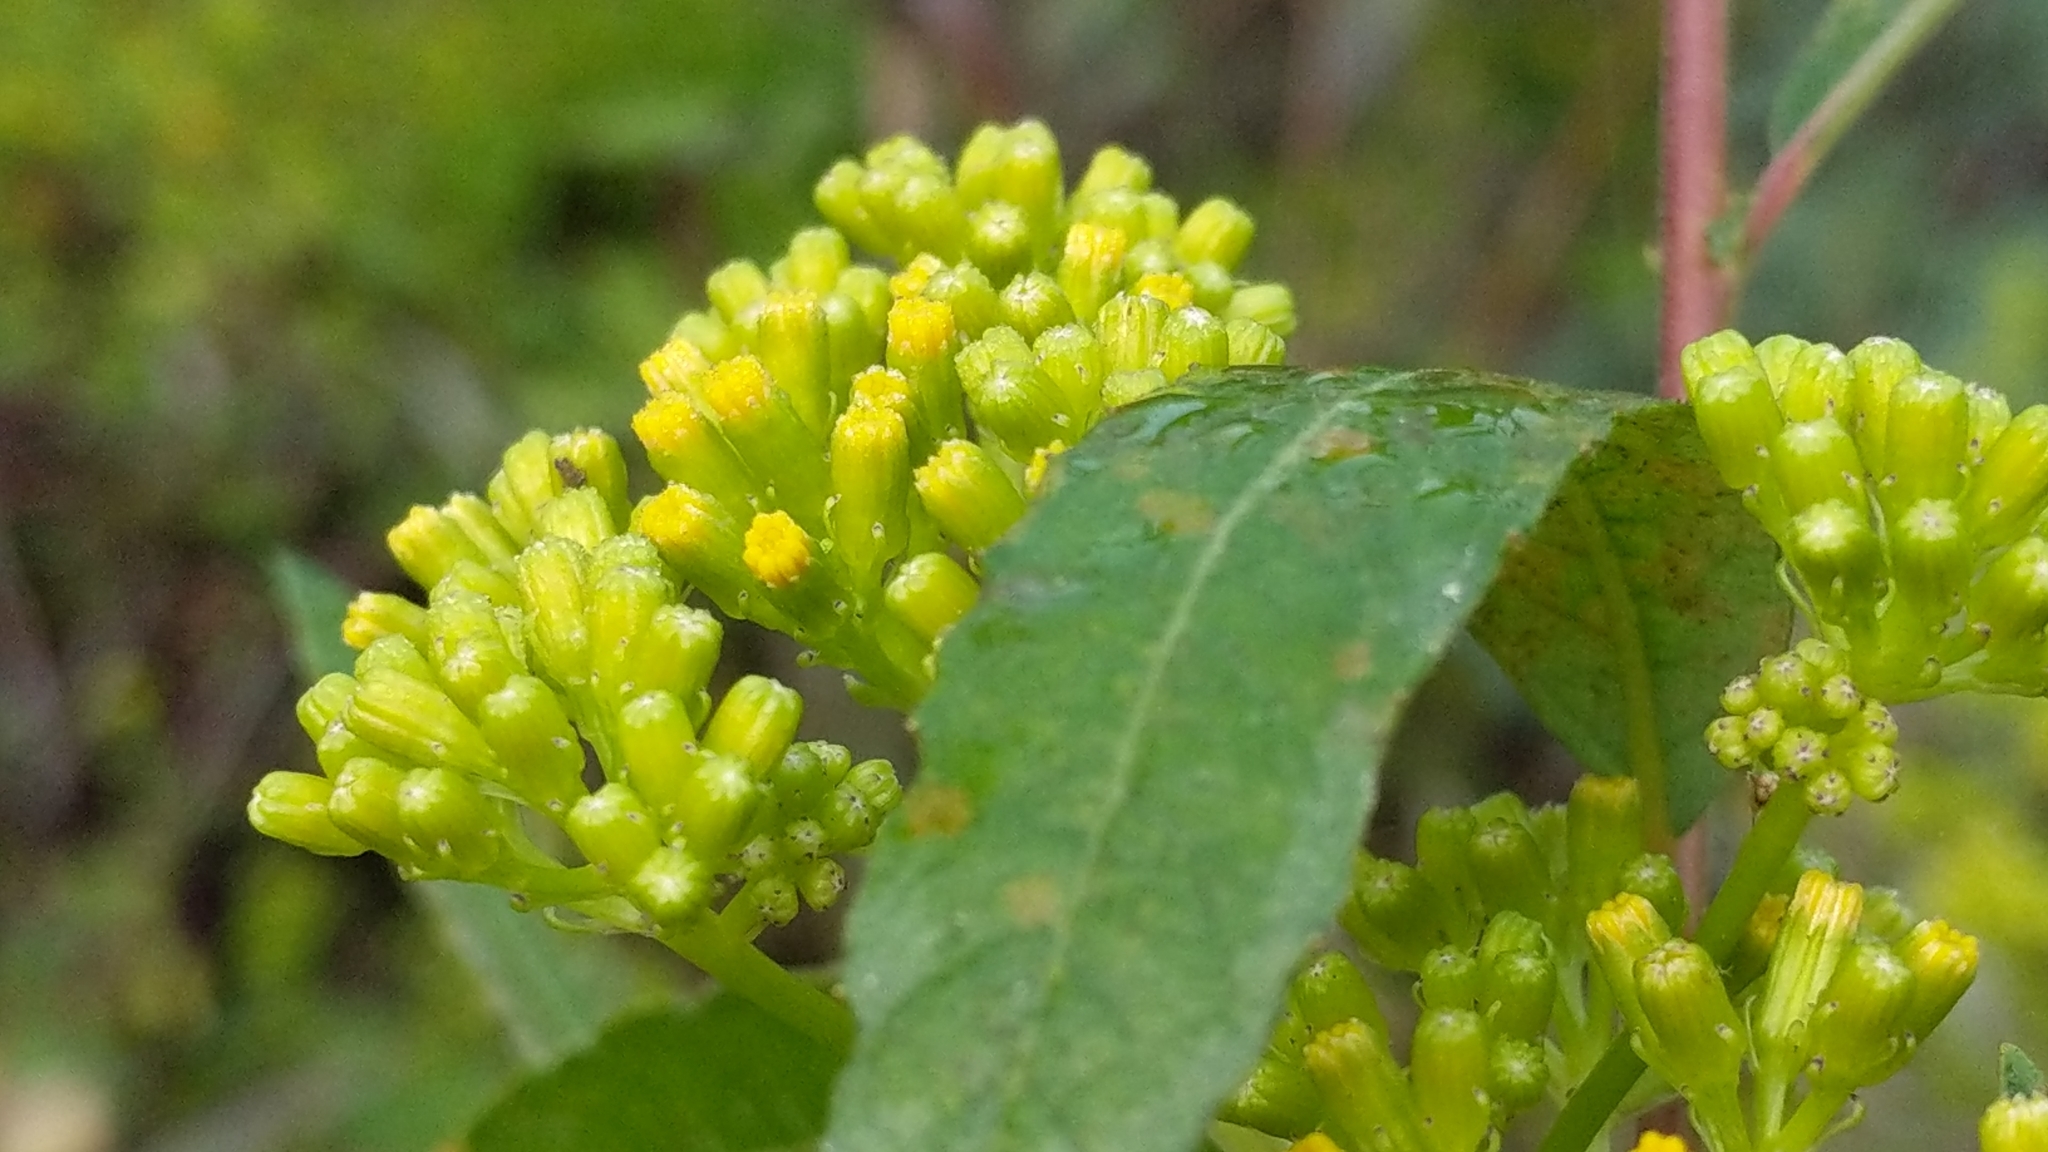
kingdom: Plantae
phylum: Tracheophyta
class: Magnoliopsida
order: Asterales
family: Asteraceae
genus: Delairea
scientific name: Delairea odorata
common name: Cape-ivy
